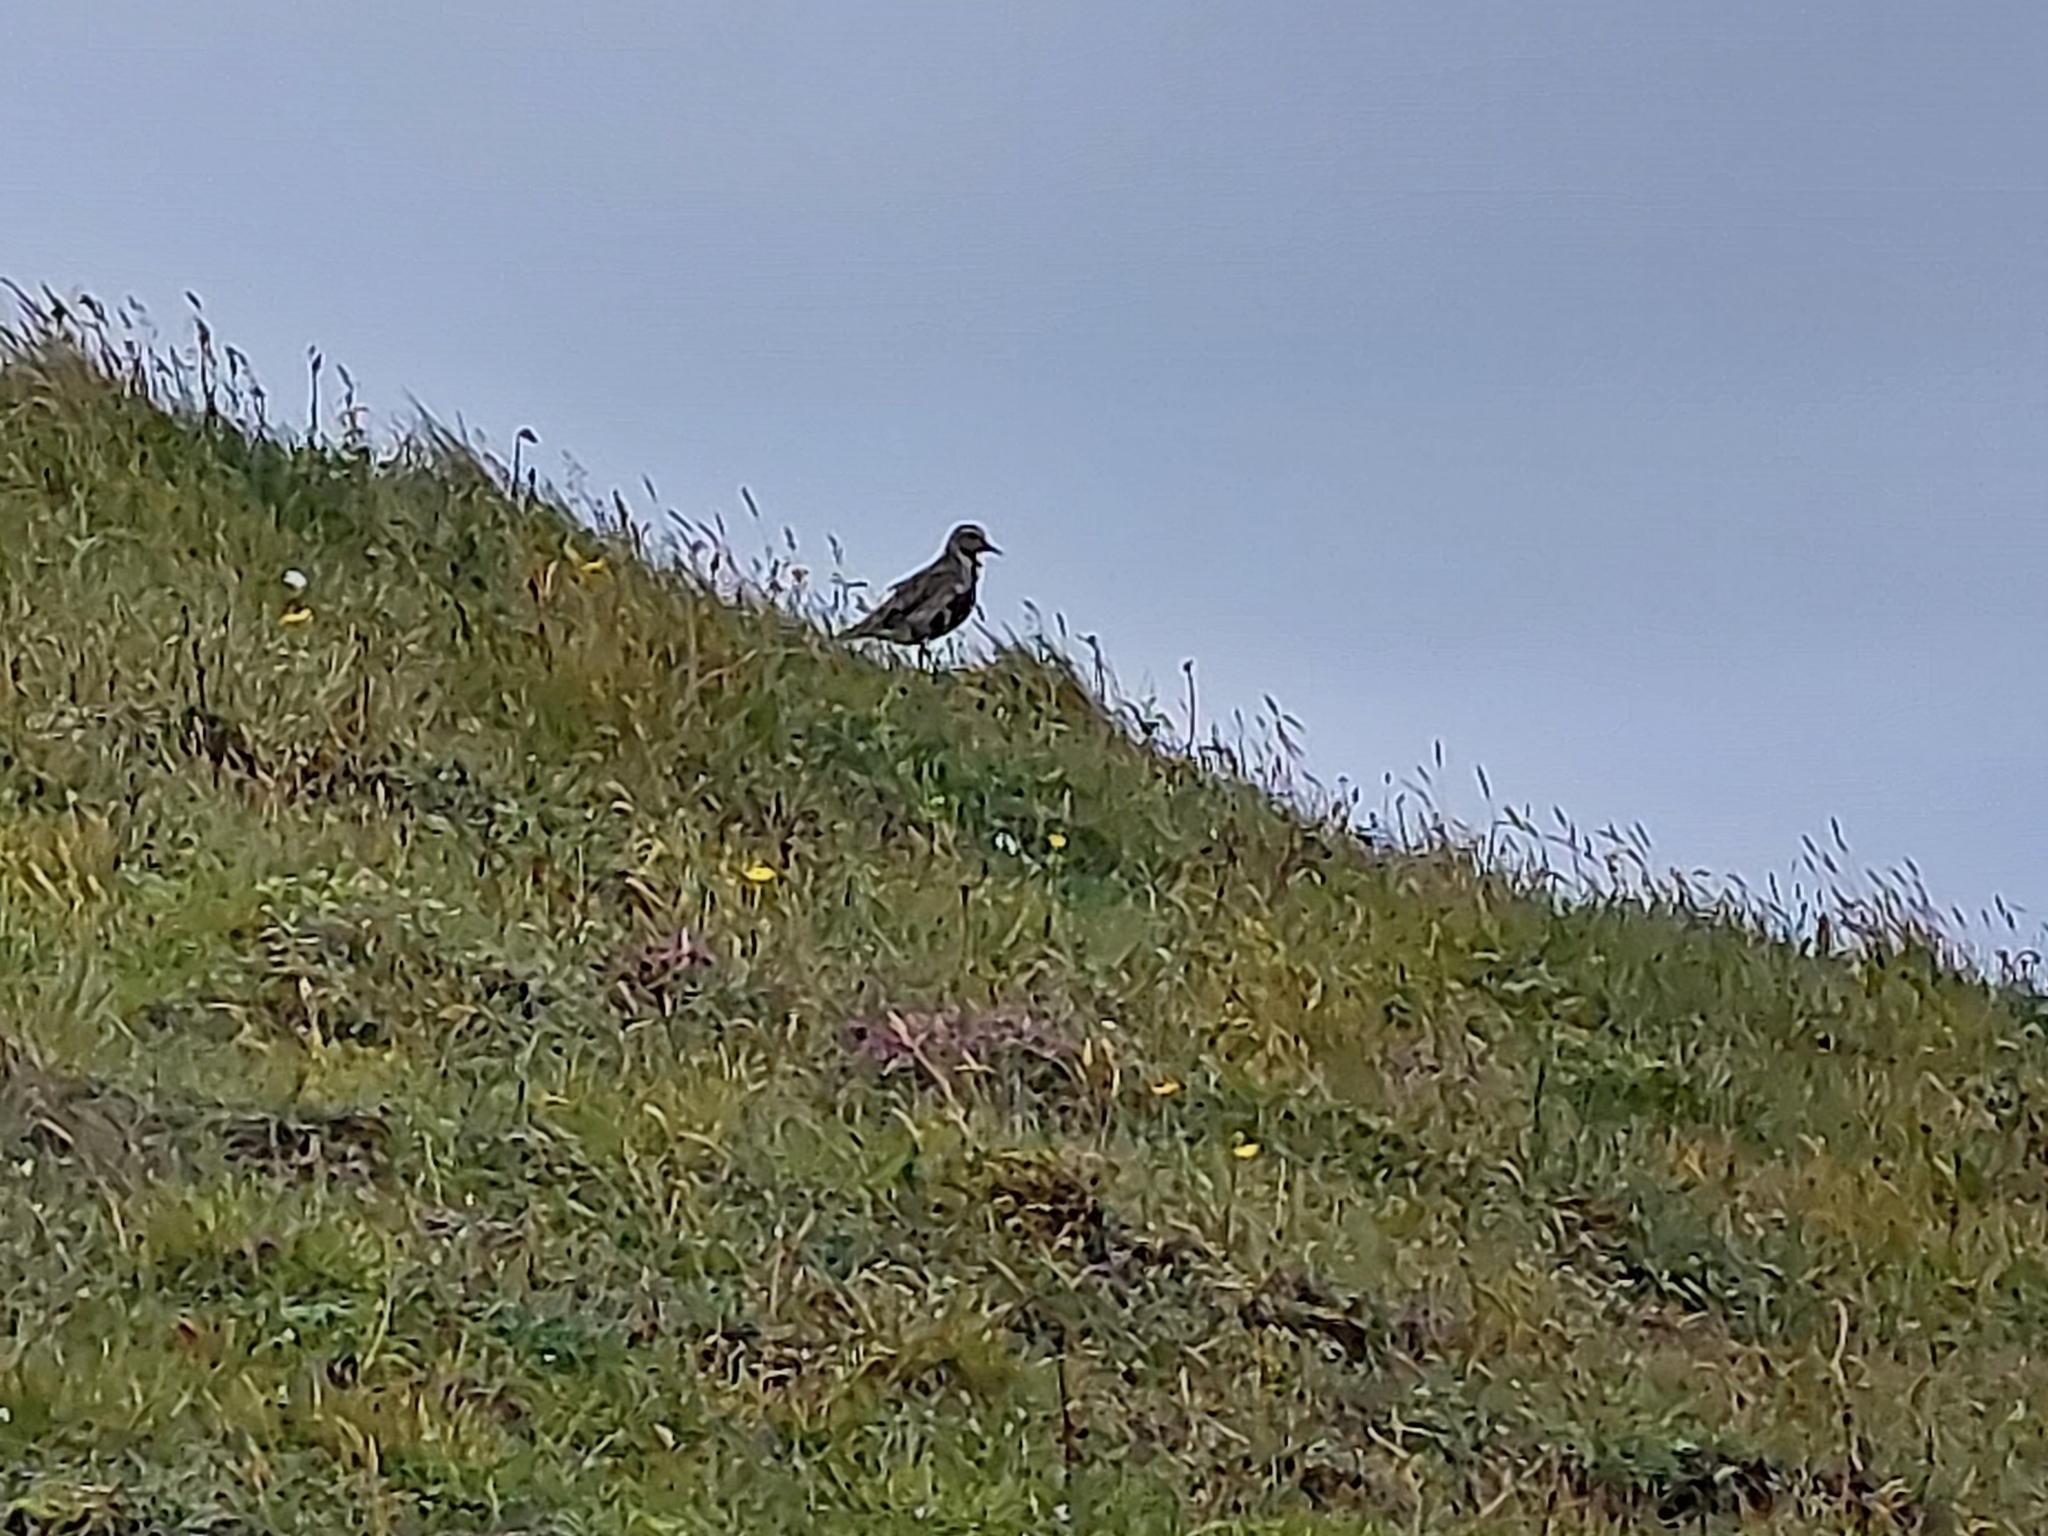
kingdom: Animalia
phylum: Chordata
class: Aves
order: Charadriiformes
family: Charadriidae
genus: Pluvialis
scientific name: Pluvialis apricaria
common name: European golden plover
